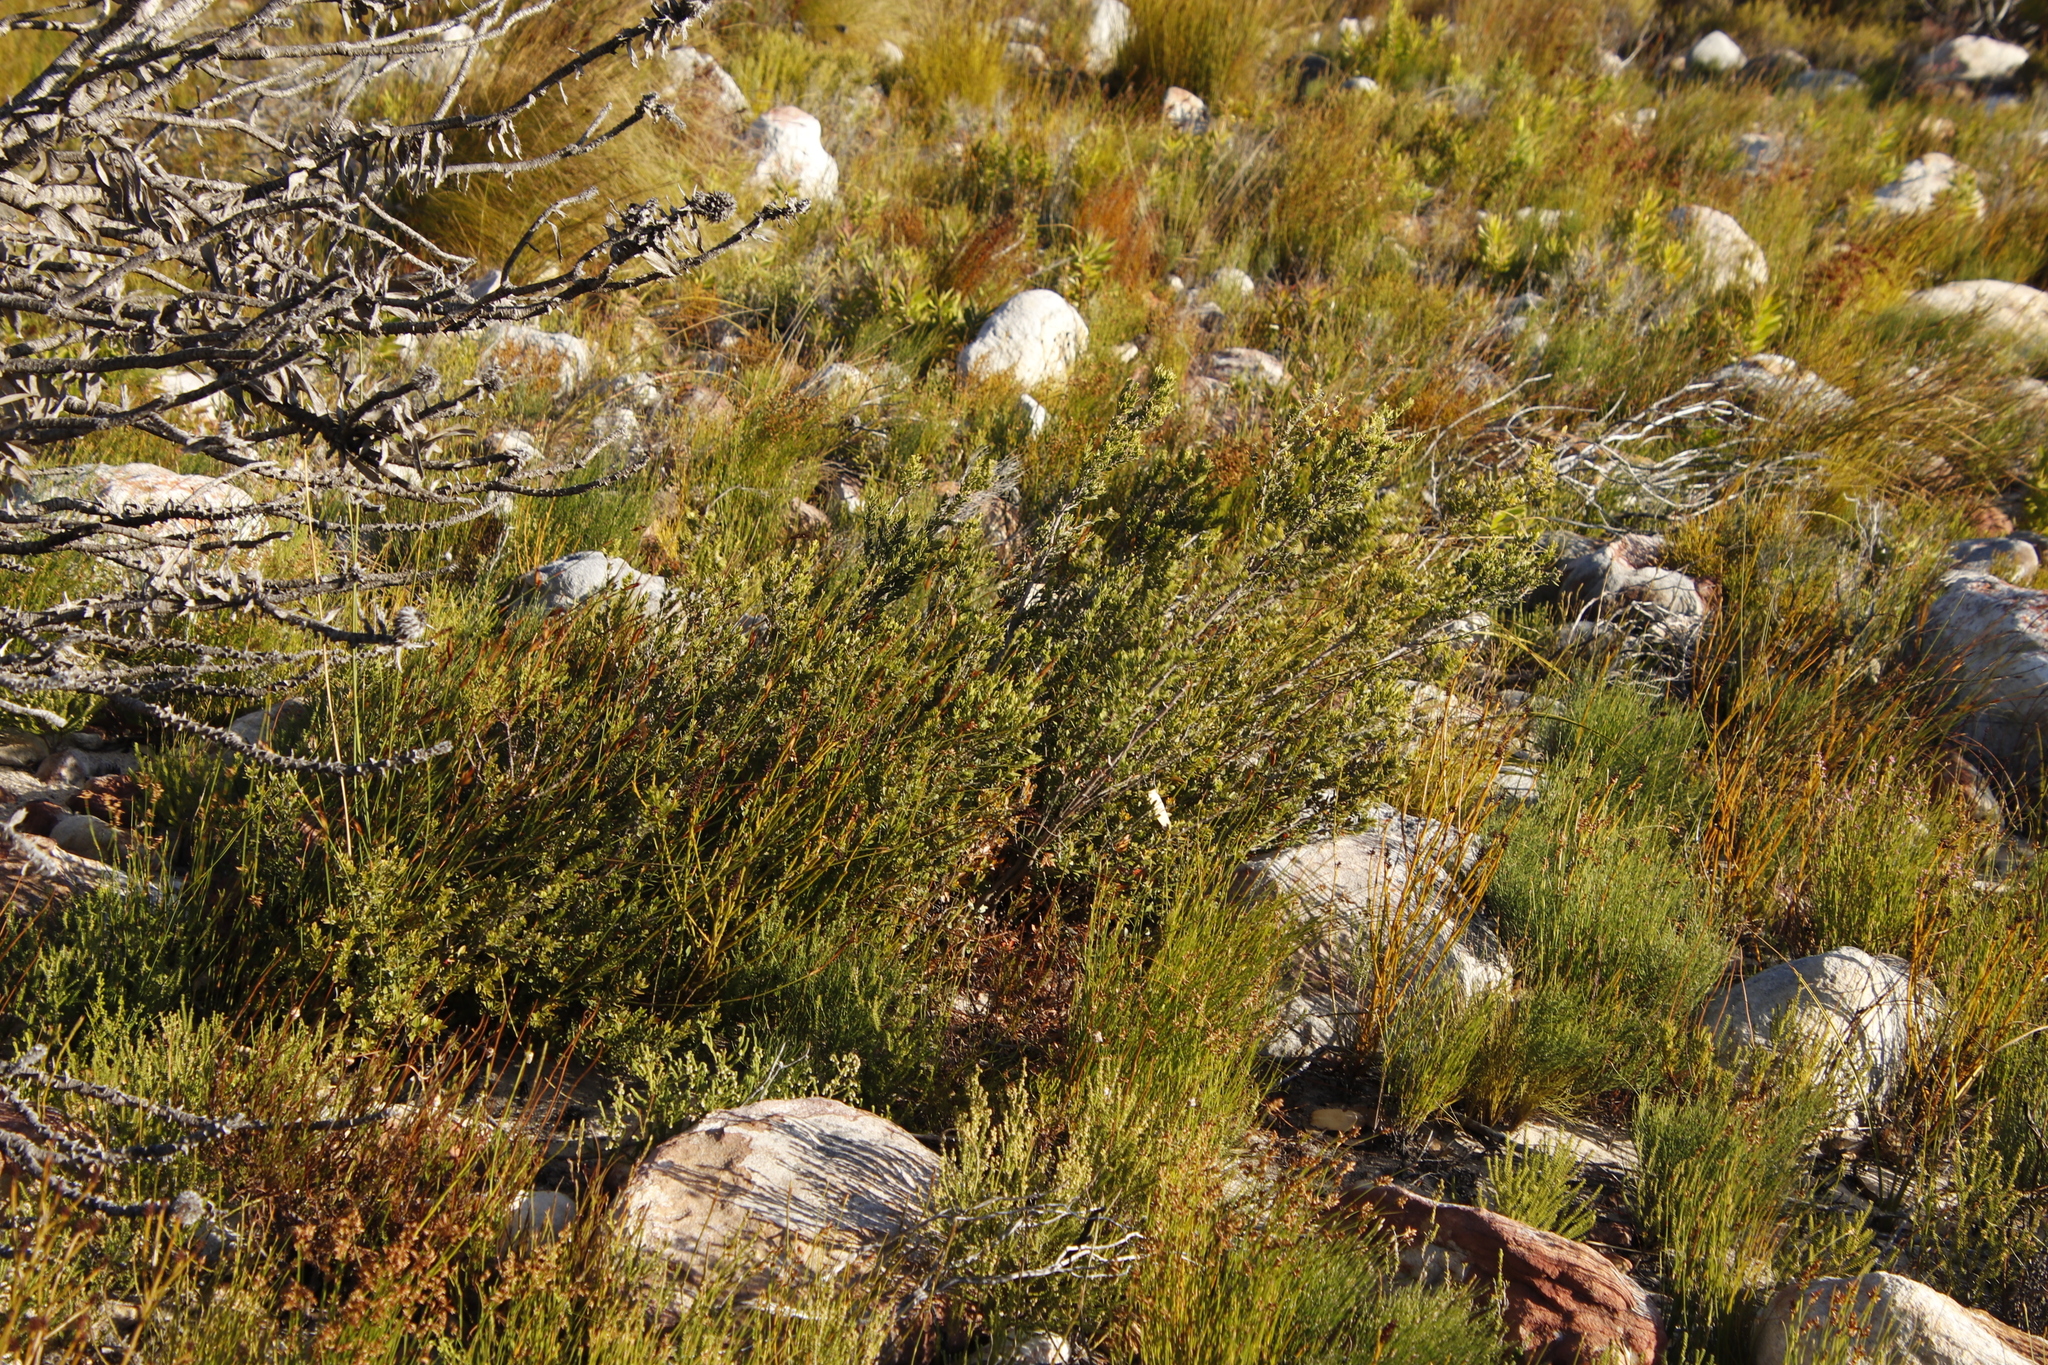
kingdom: Plantae
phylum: Tracheophyta
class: Magnoliopsida
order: Ericales
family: Ebenaceae
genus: Diospyros
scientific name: Diospyros glabra
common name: Fynbos star apple
